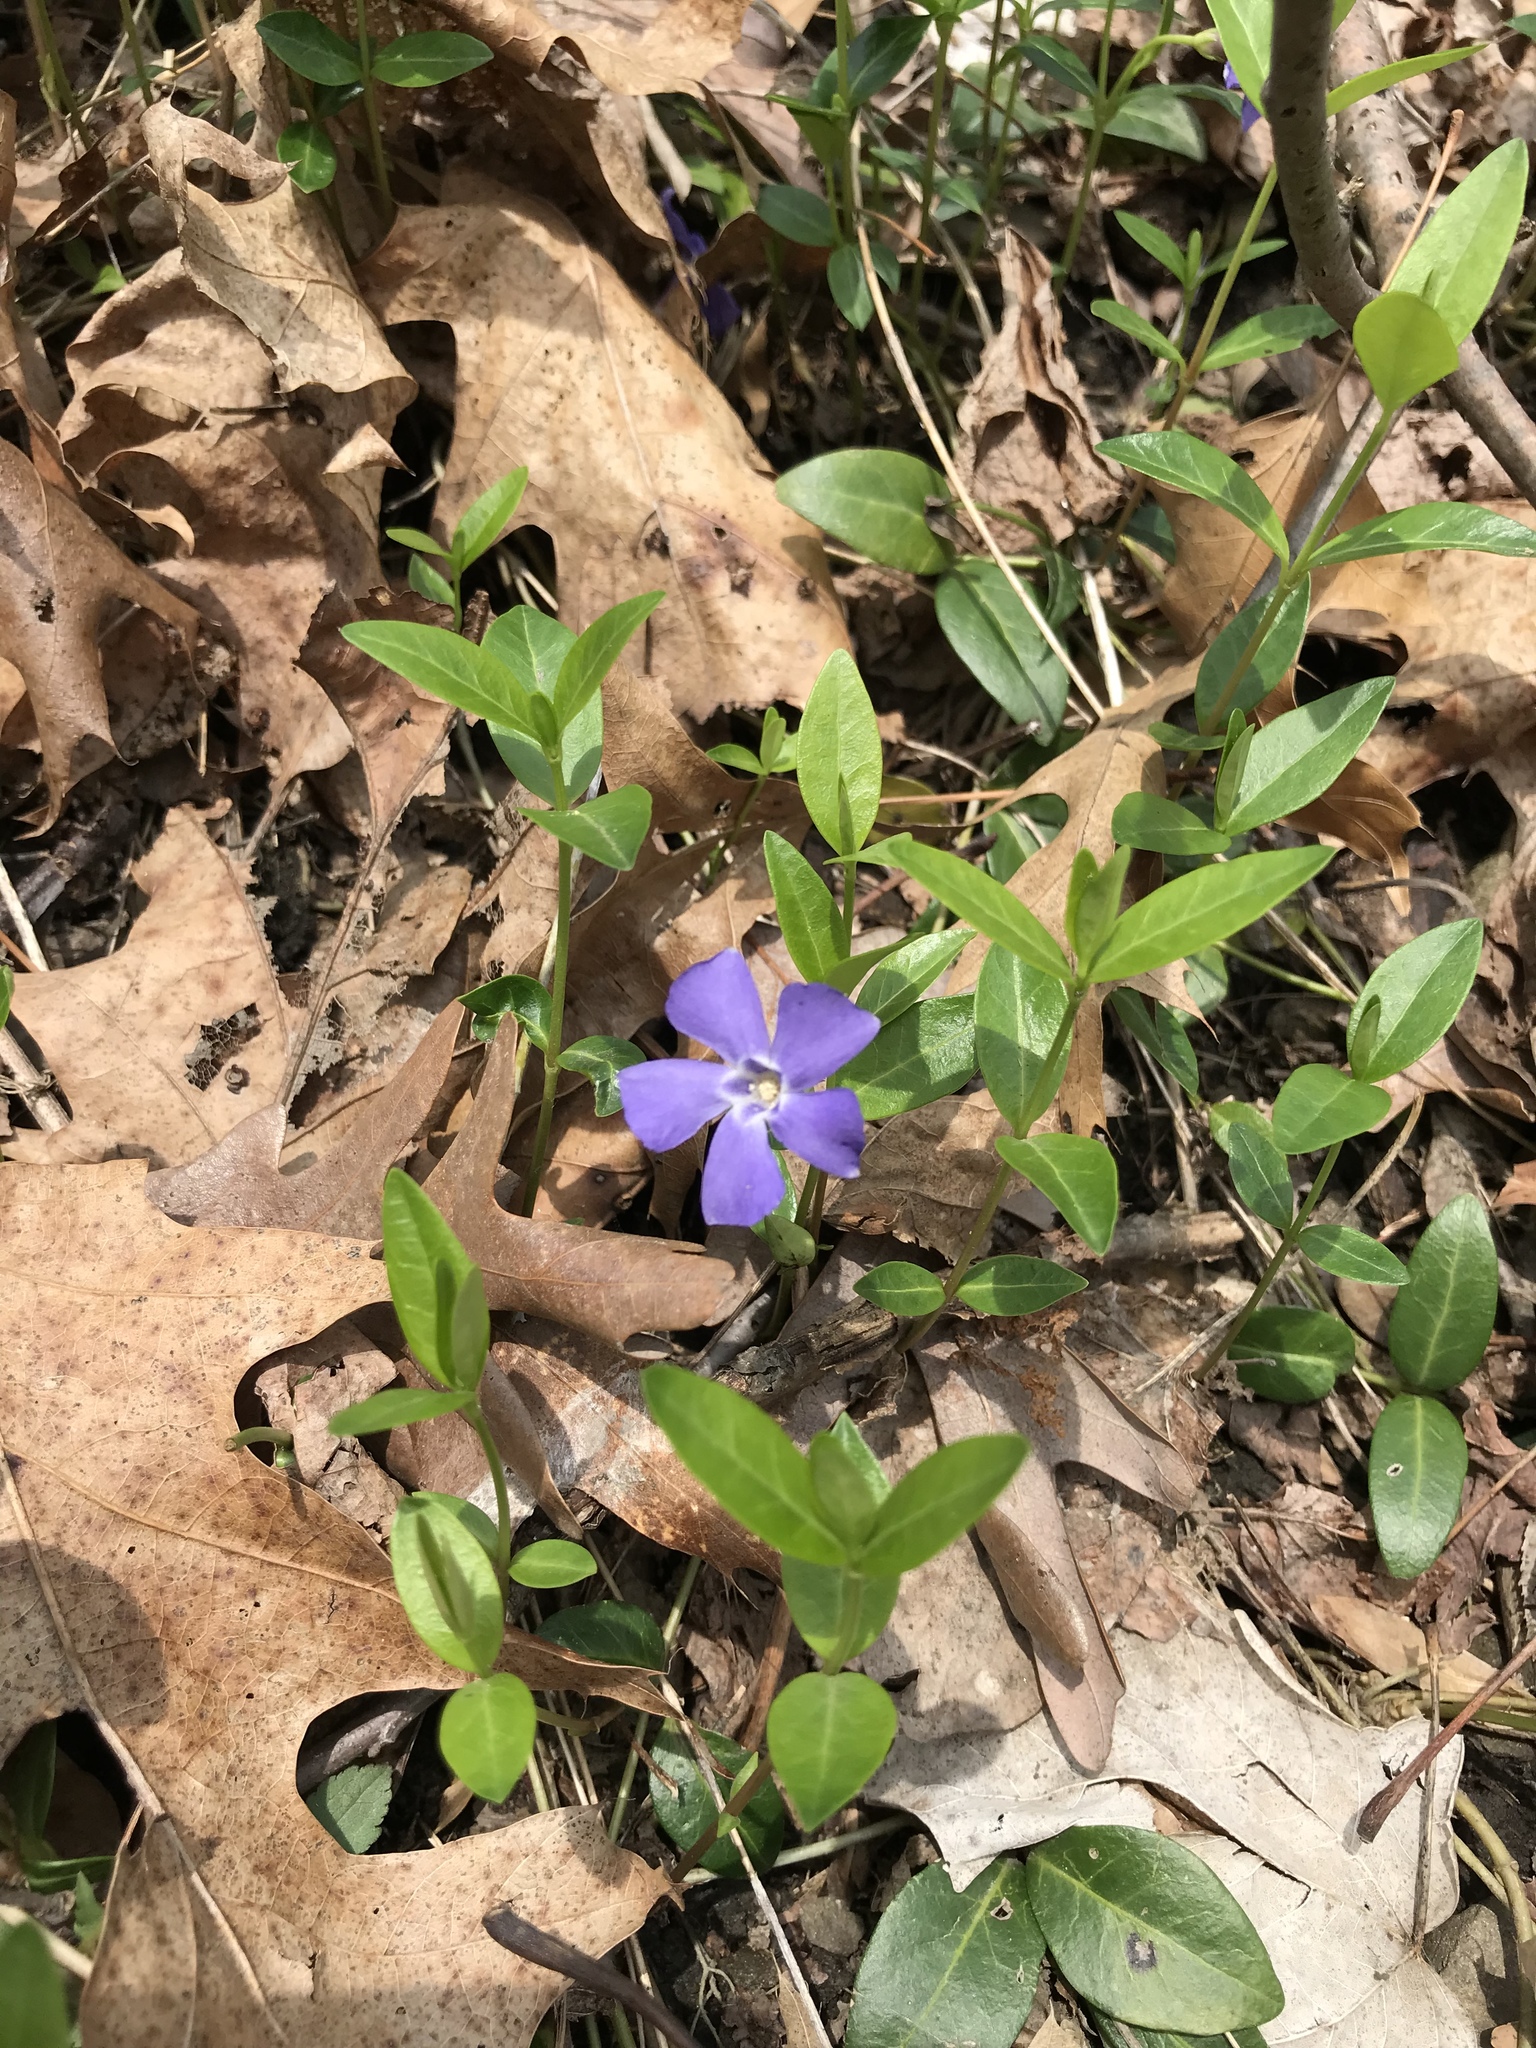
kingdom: Plantae
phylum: Tracheophyta
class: Magnoliopsida
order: Gentianales
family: Apocynaceae
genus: Vinca
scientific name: Vinca minor
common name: Lesser periwinkle
